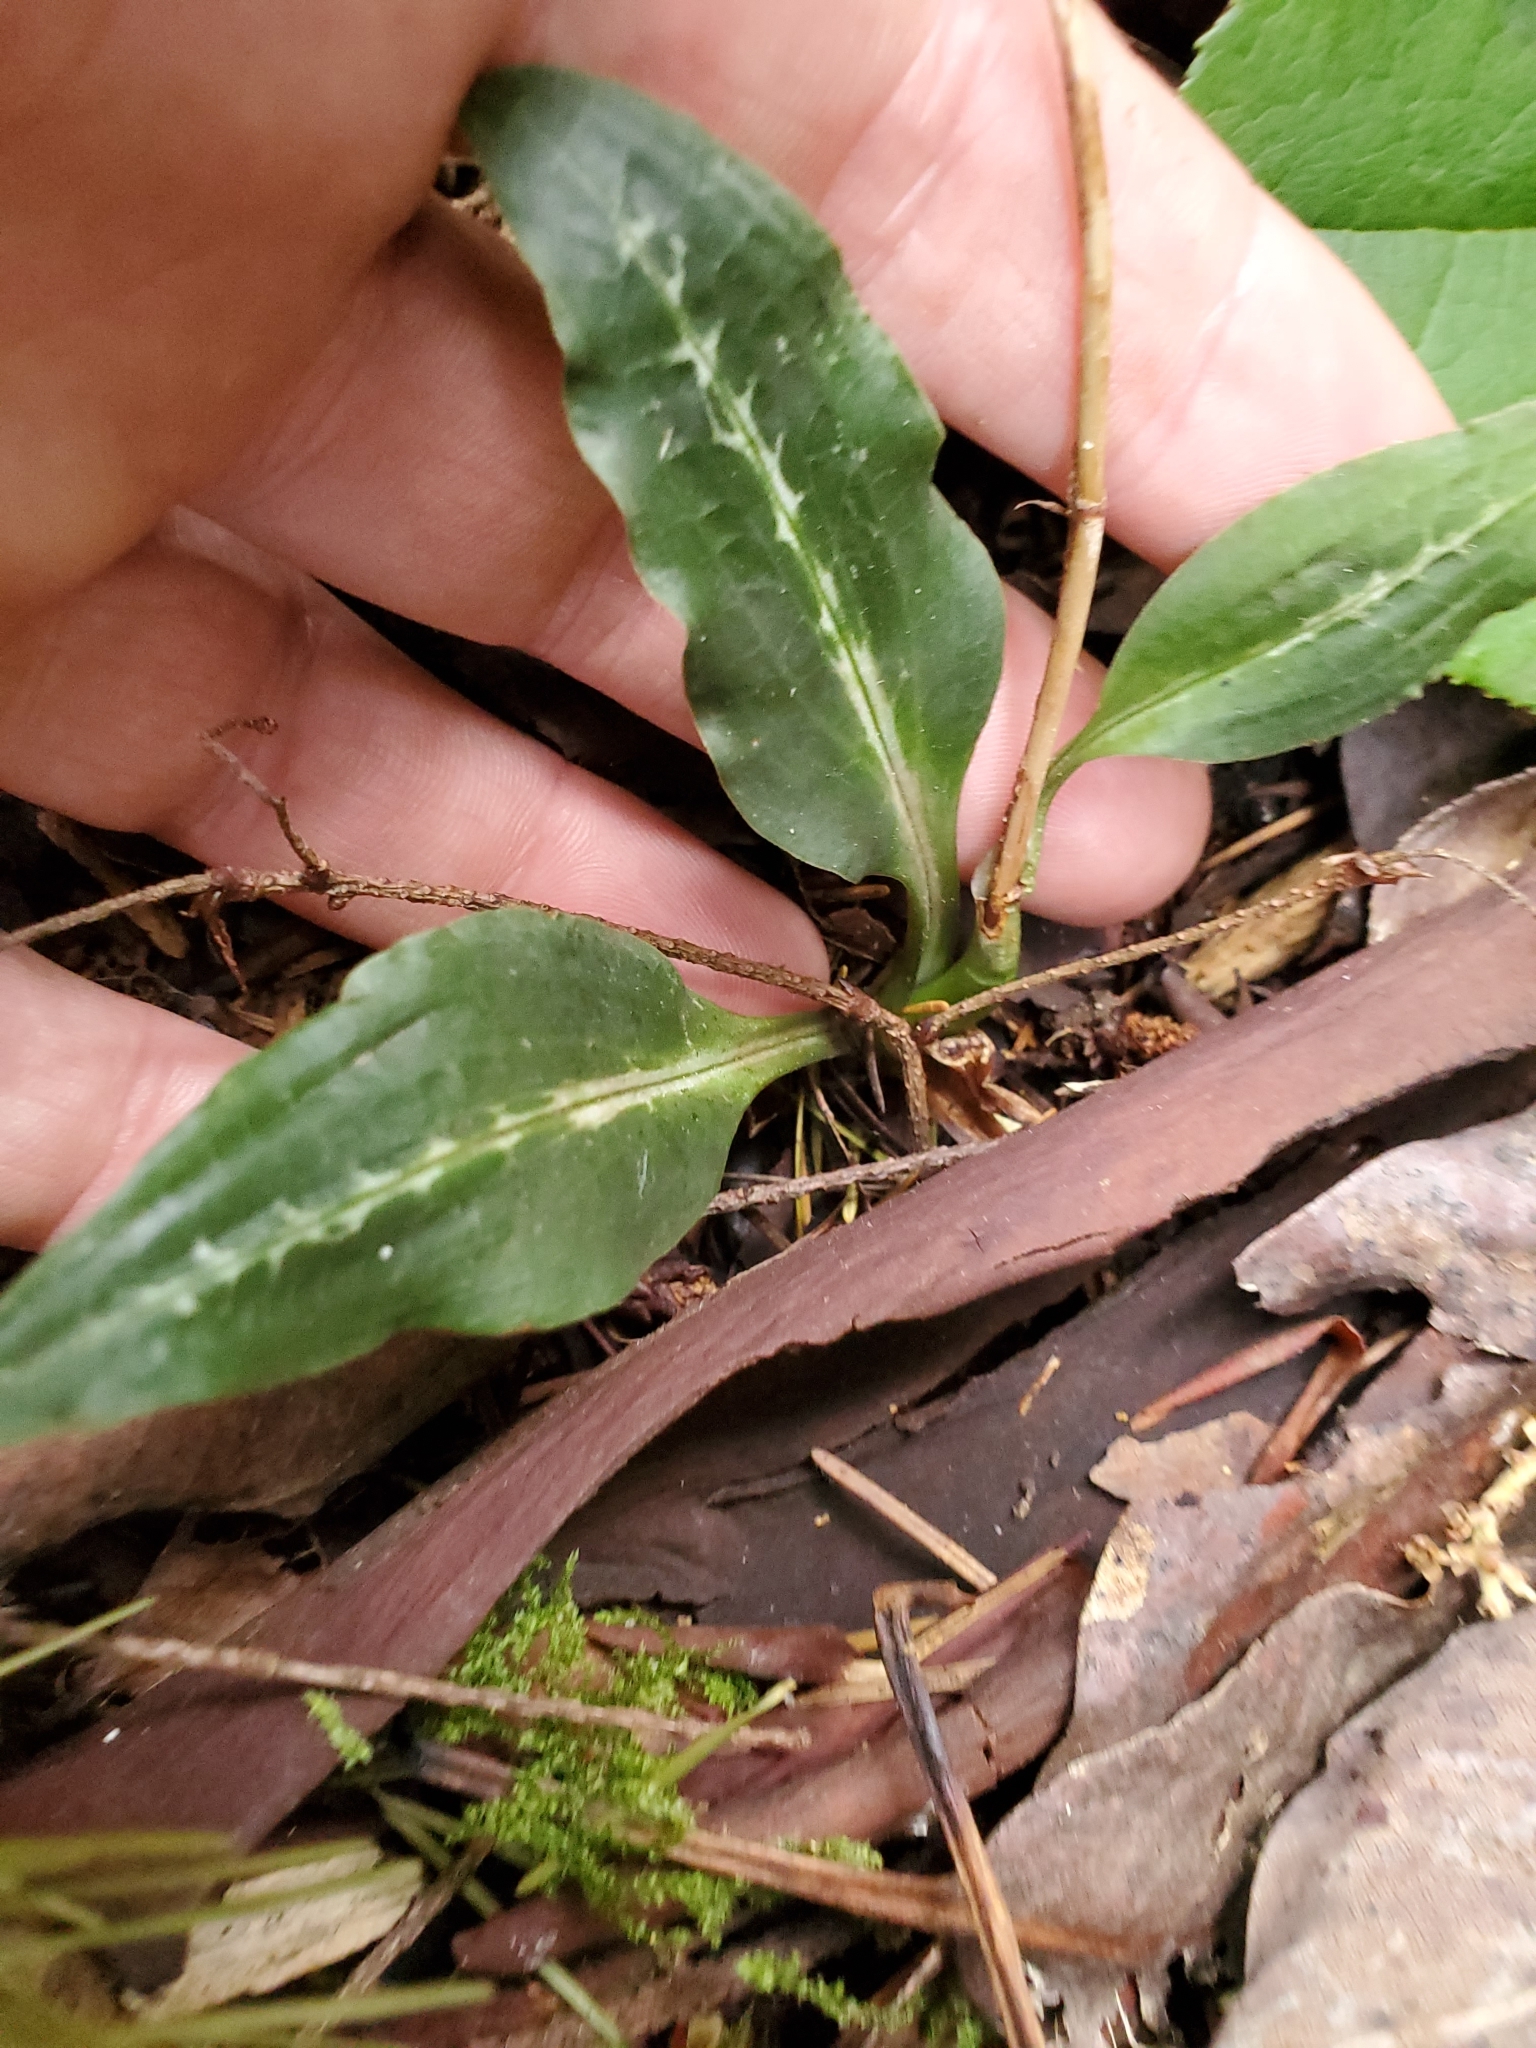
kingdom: Plantae
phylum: Tracheophyta
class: Liliopsida
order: Asparagales
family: Orchidaceae
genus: Goodyera
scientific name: Goodyera oblongifolia
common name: Giant rattlesnake-plantain
